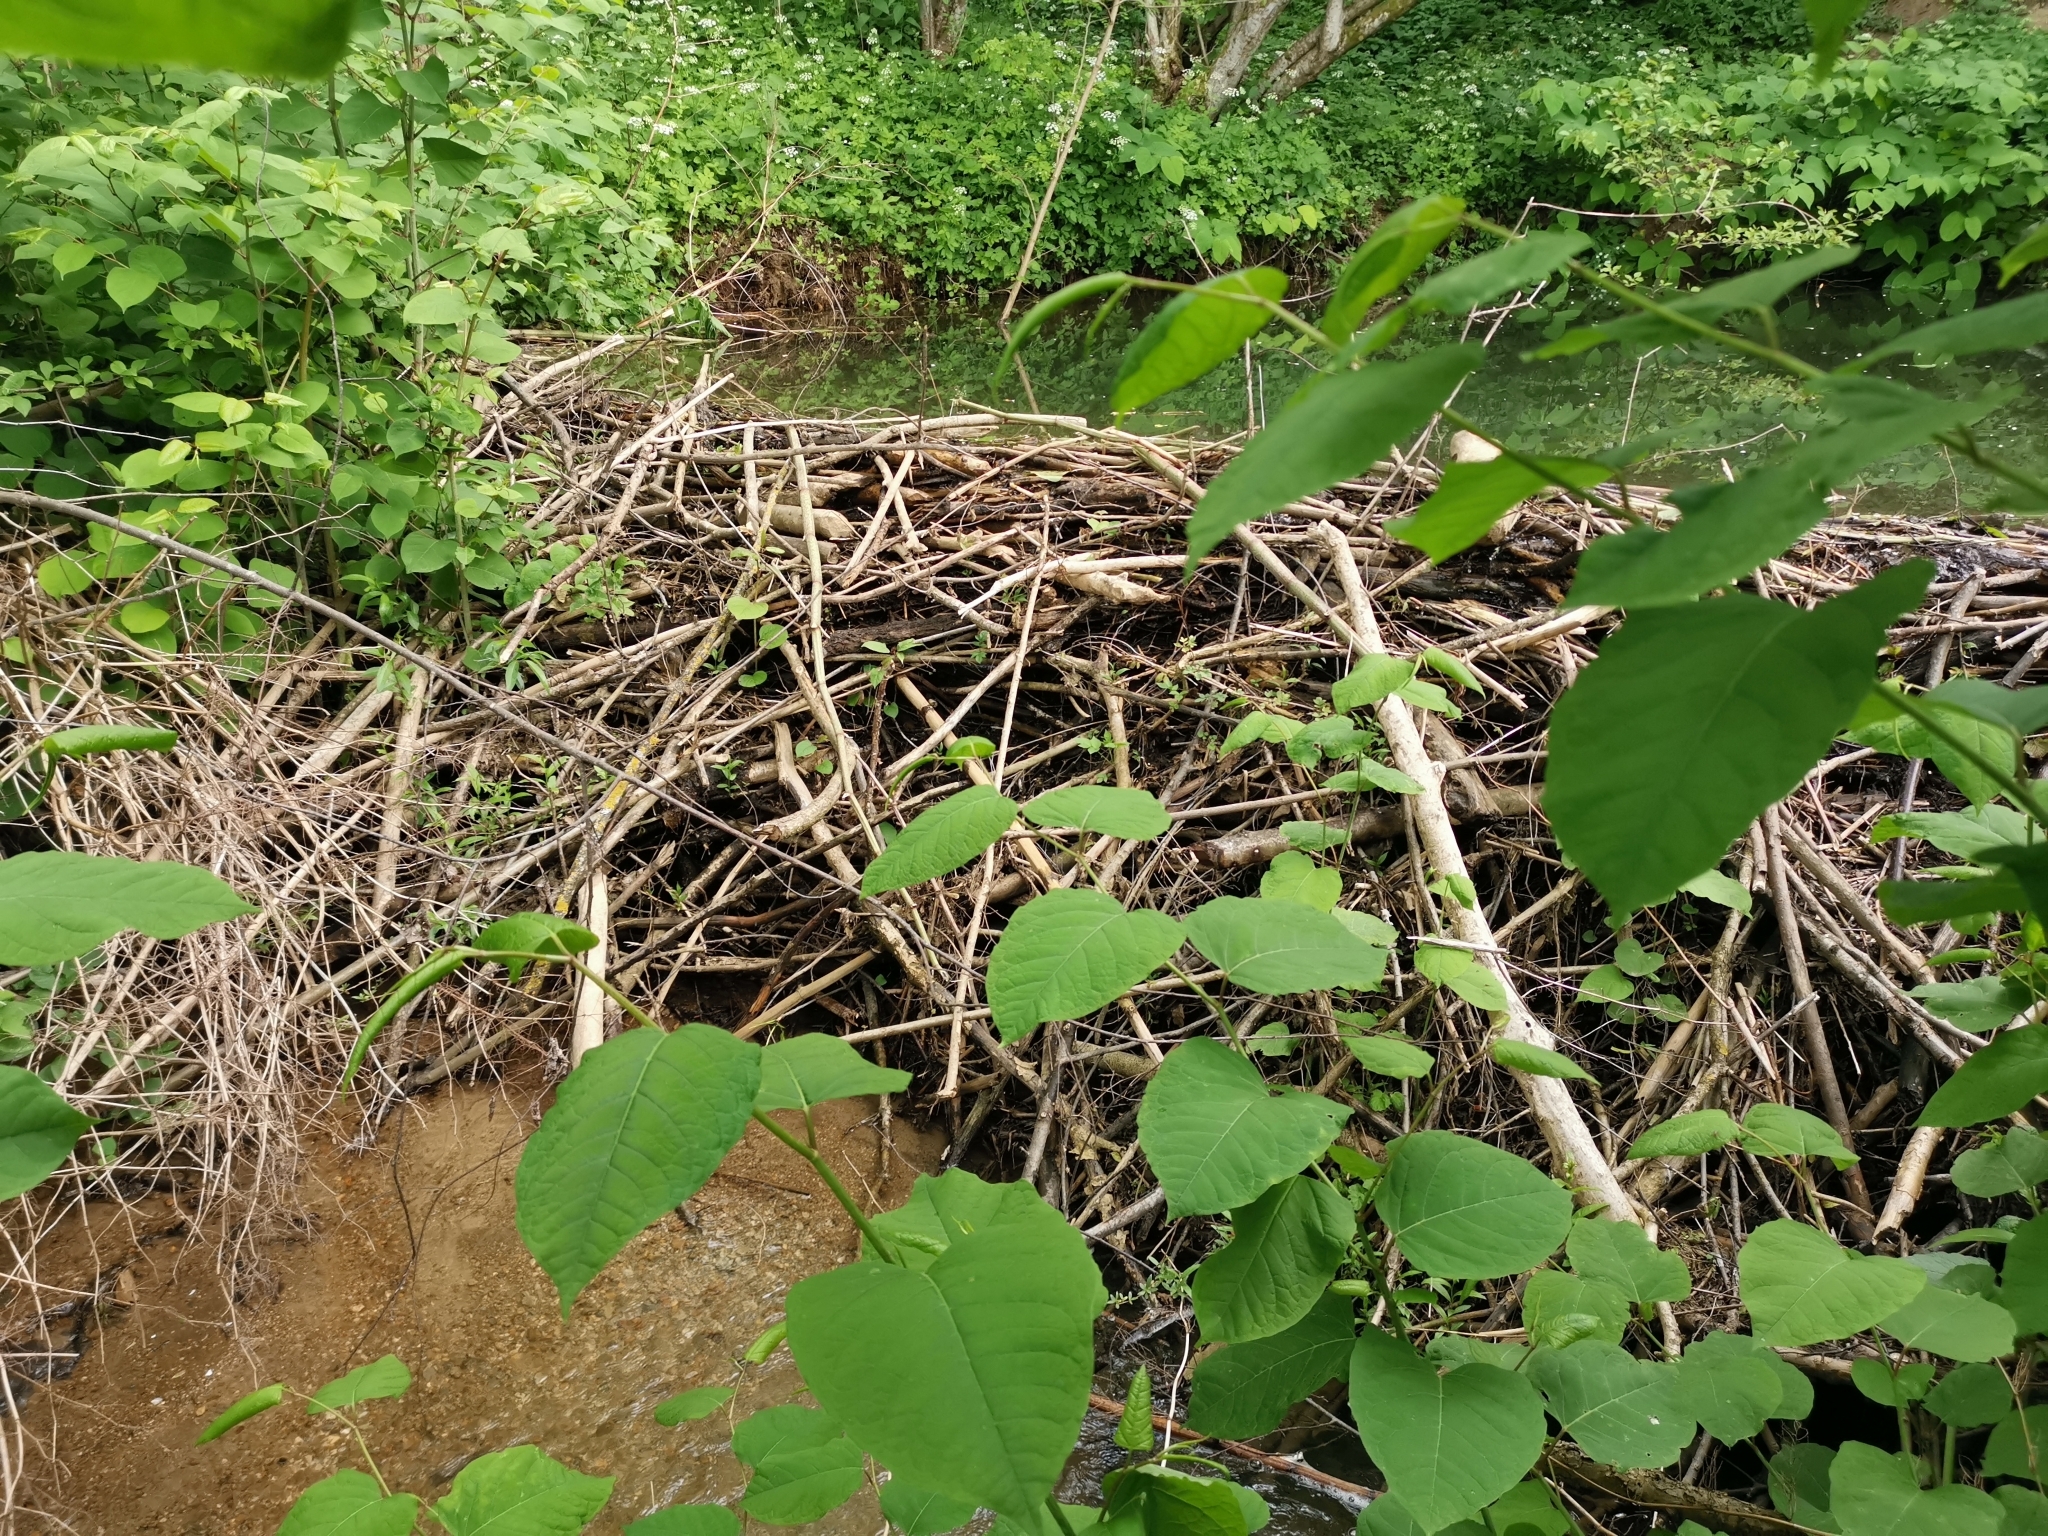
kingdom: Animalia
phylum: Chordata
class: Mammalia
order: Rodentia
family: Castoridae
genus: Castor
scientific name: Castor fiber
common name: Eurasian beaver
